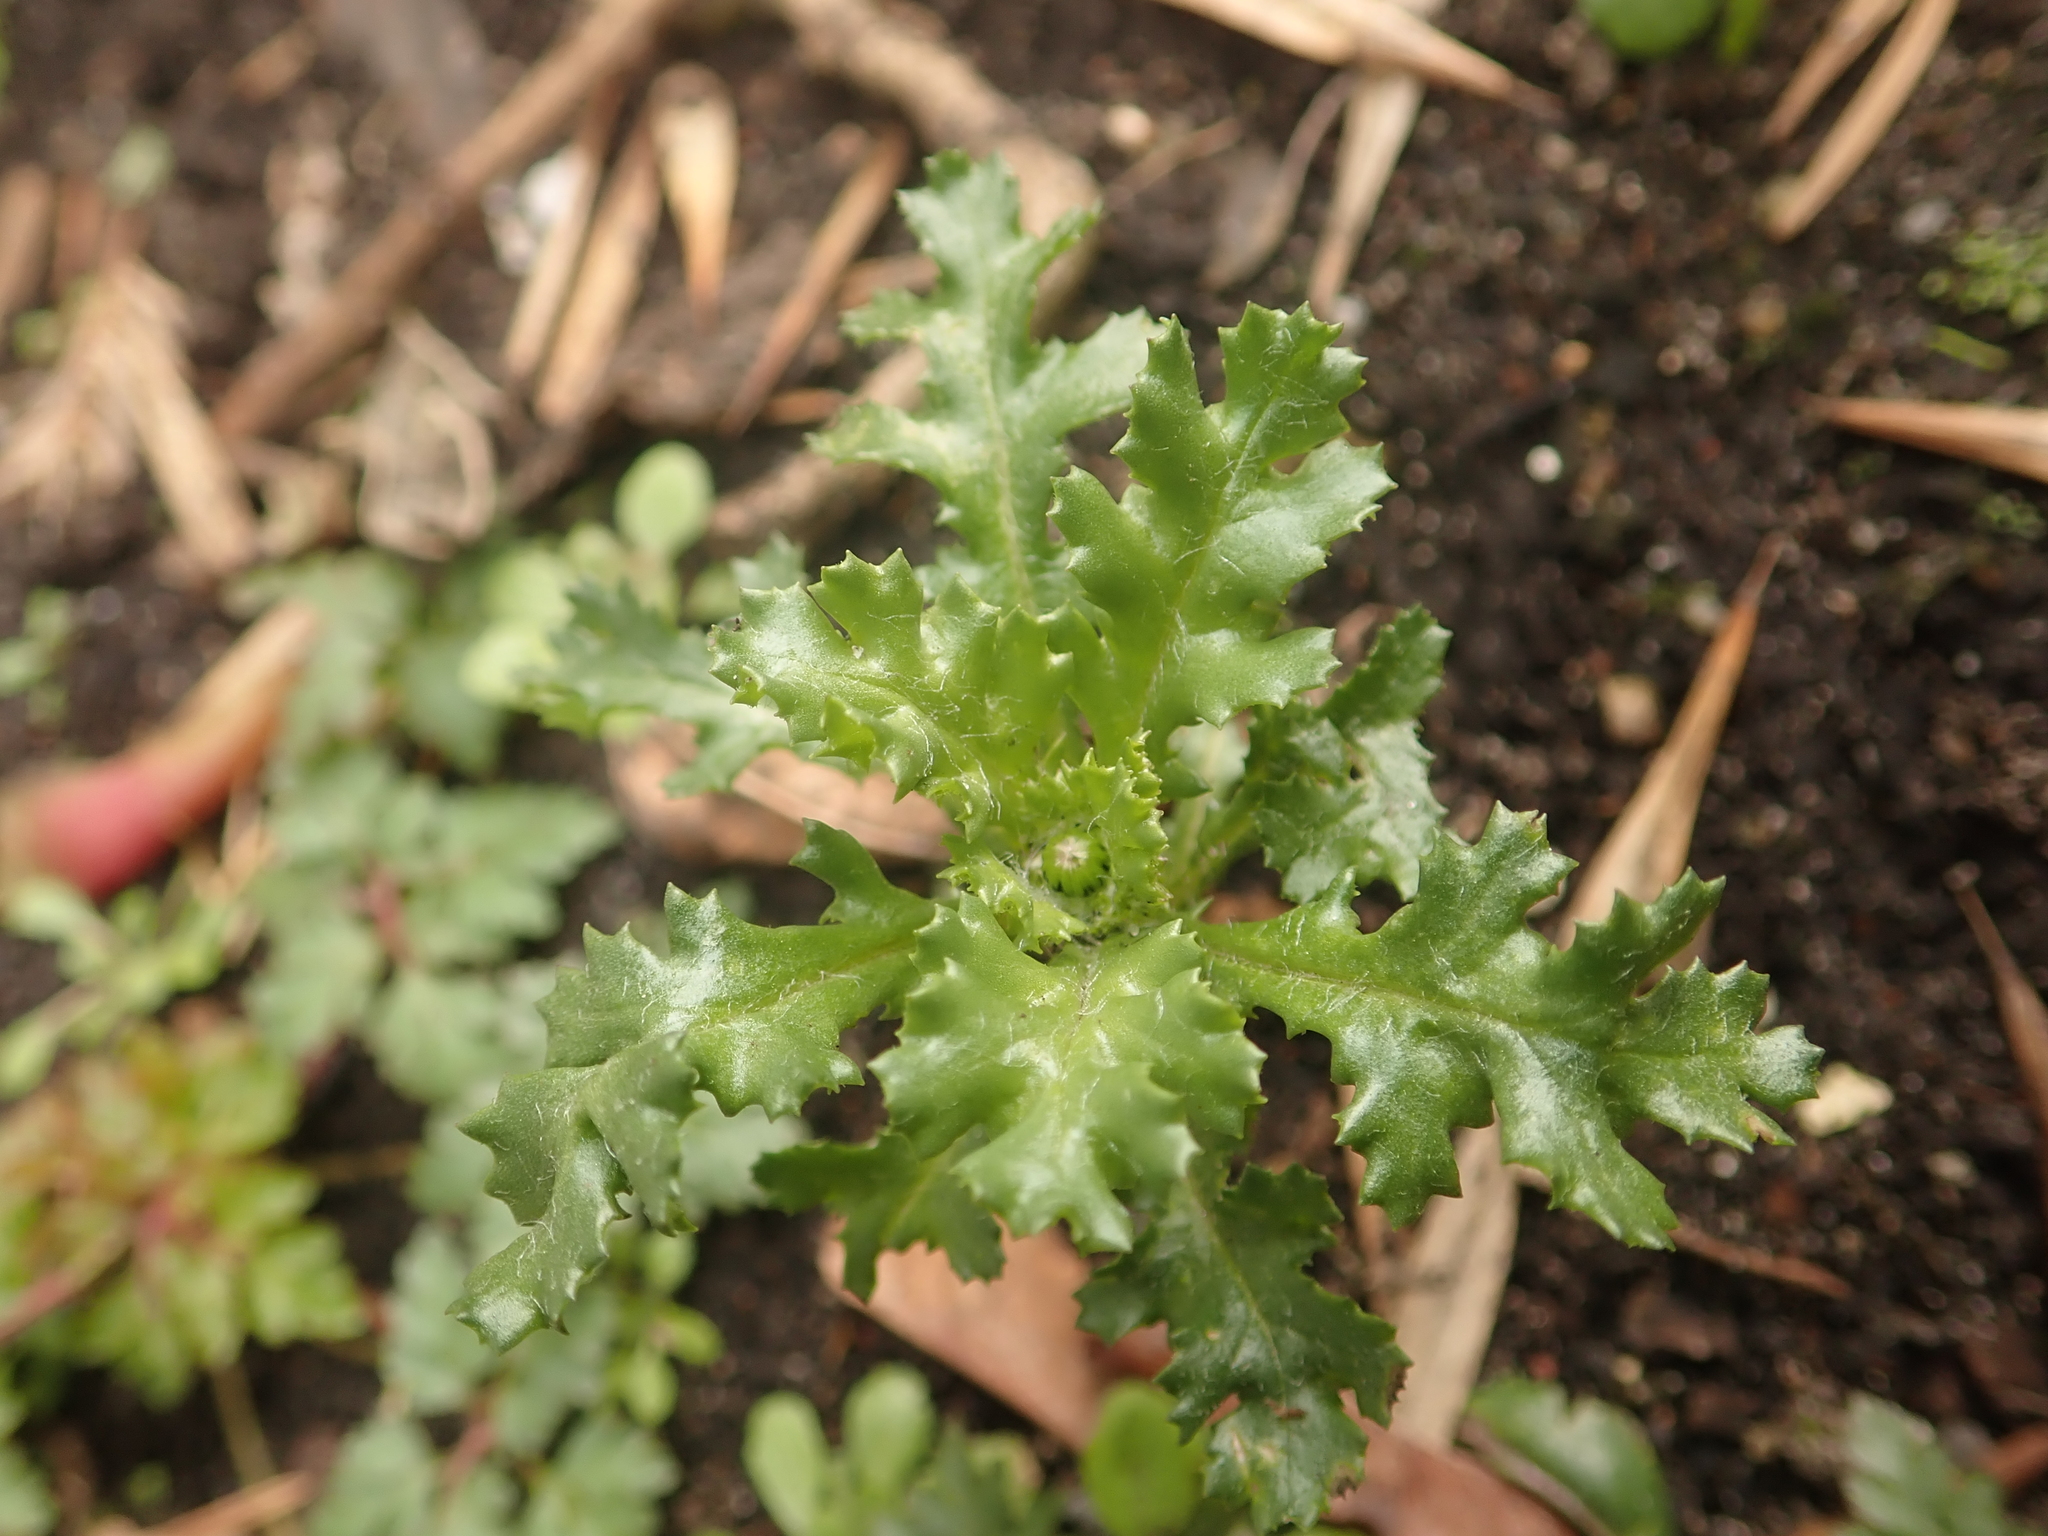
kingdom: Plantae
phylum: Tracheophyta
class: Magnoliopsida
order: Asterales
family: Asteraceae
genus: Senecio
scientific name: Senecio vulgaris
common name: Old-man-in-the-spring
